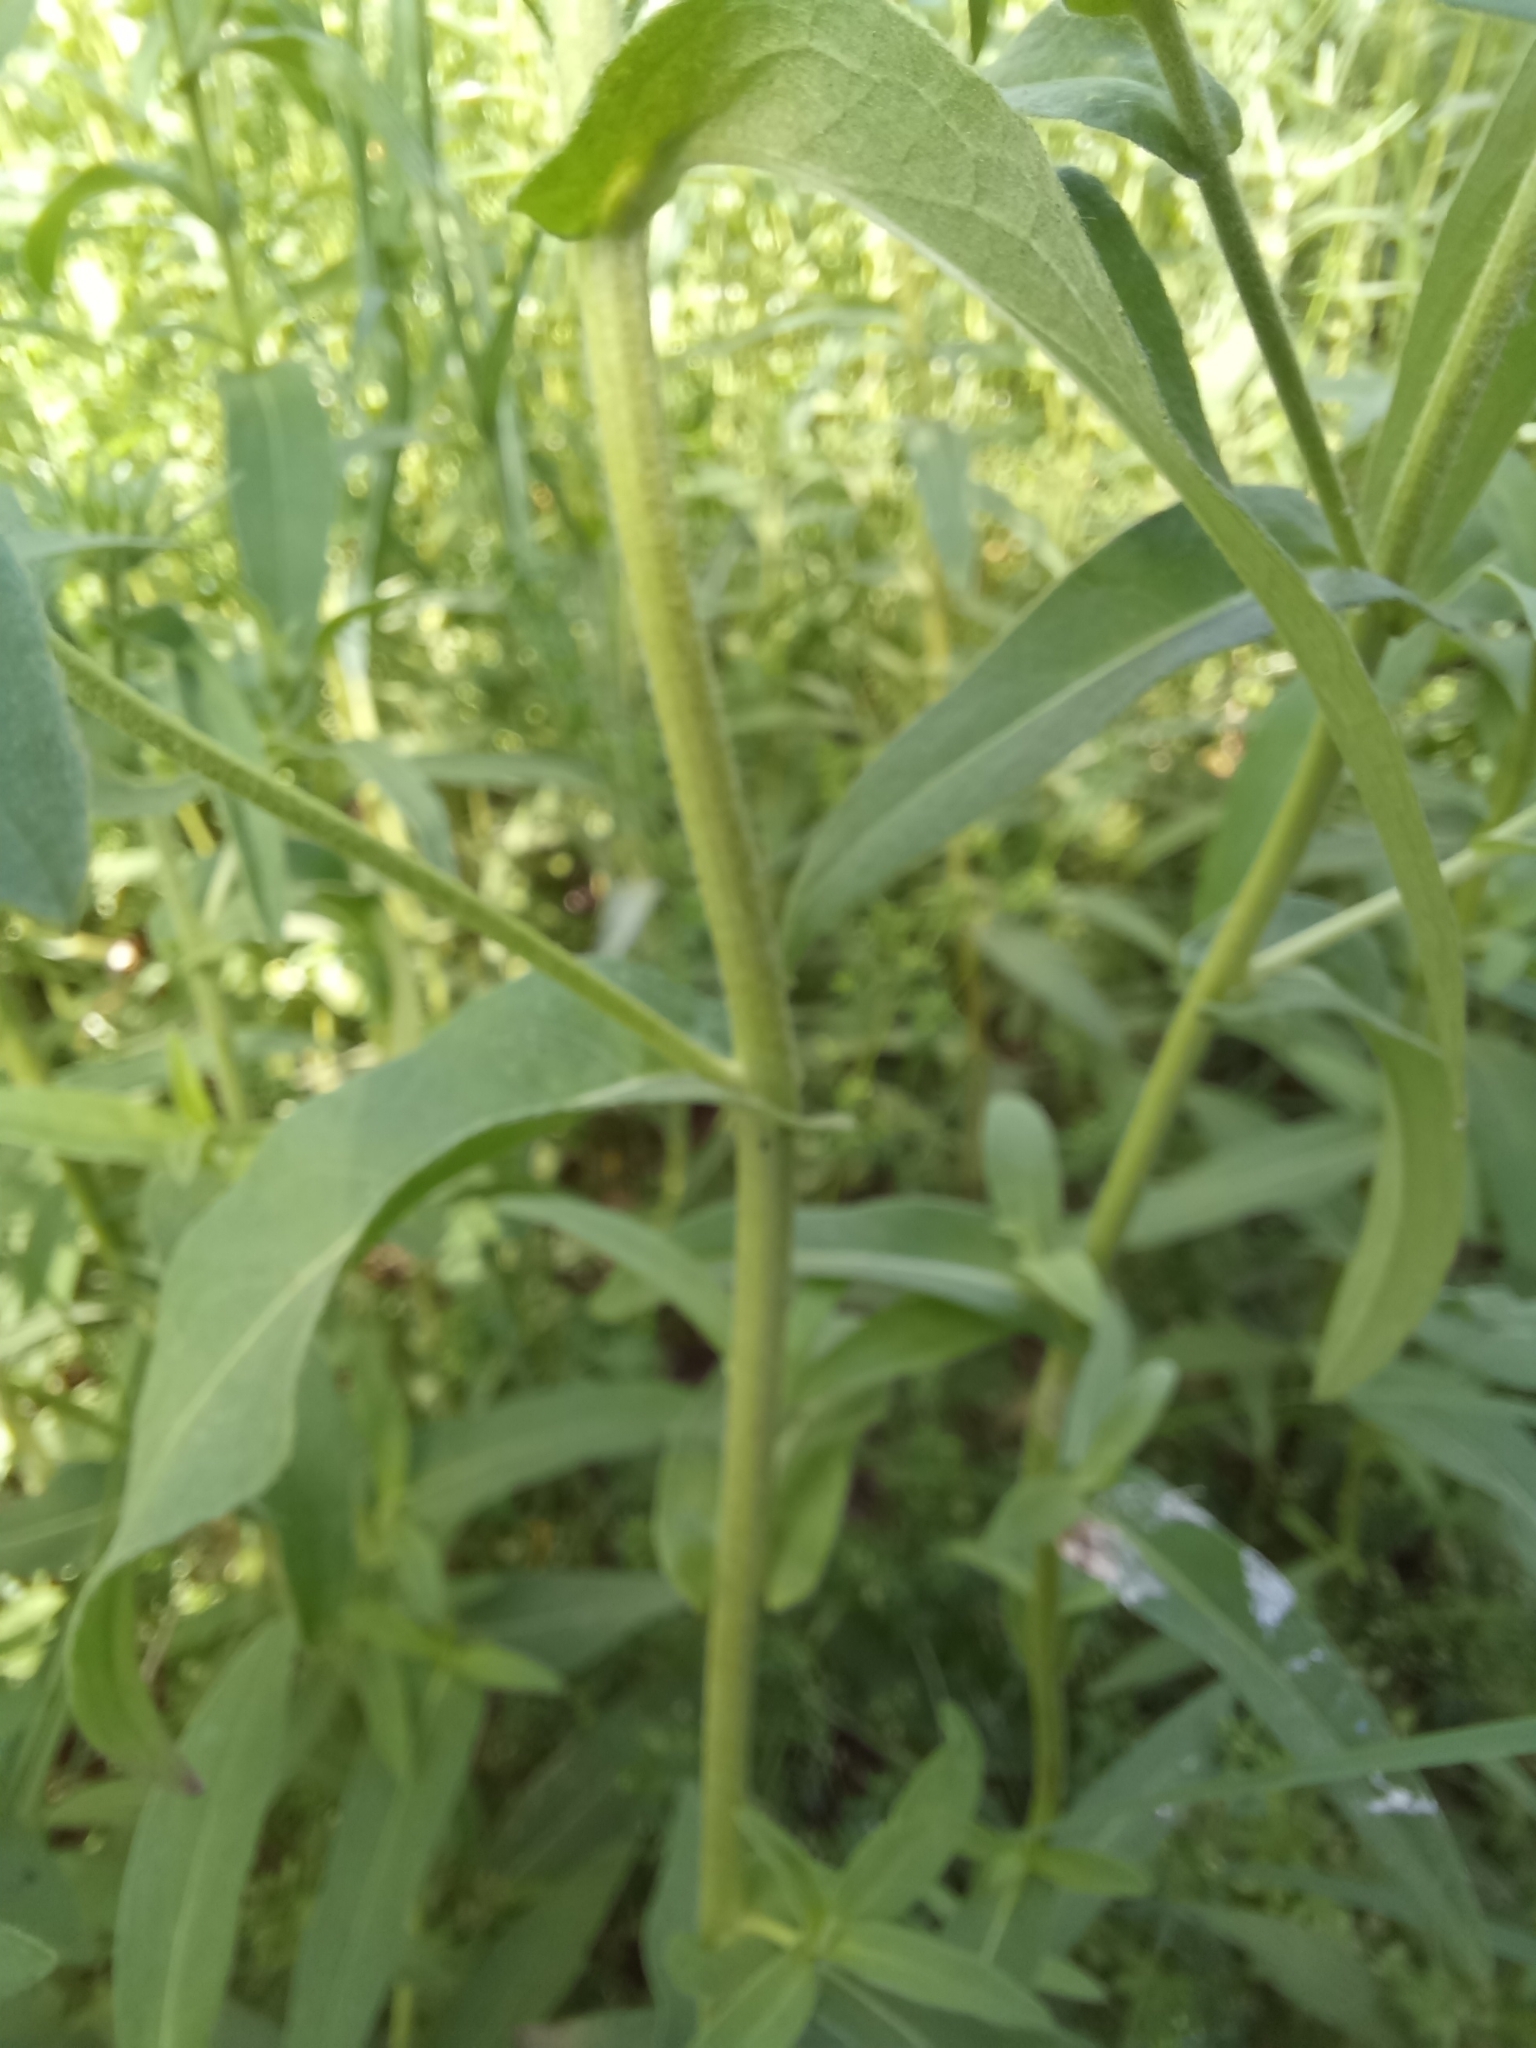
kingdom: Plantae
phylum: Tracheophyta
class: Magnoliopsida
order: Asterales
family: Asteraceae
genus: Pentanema
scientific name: Pentanema britannicum
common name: British elecampane
